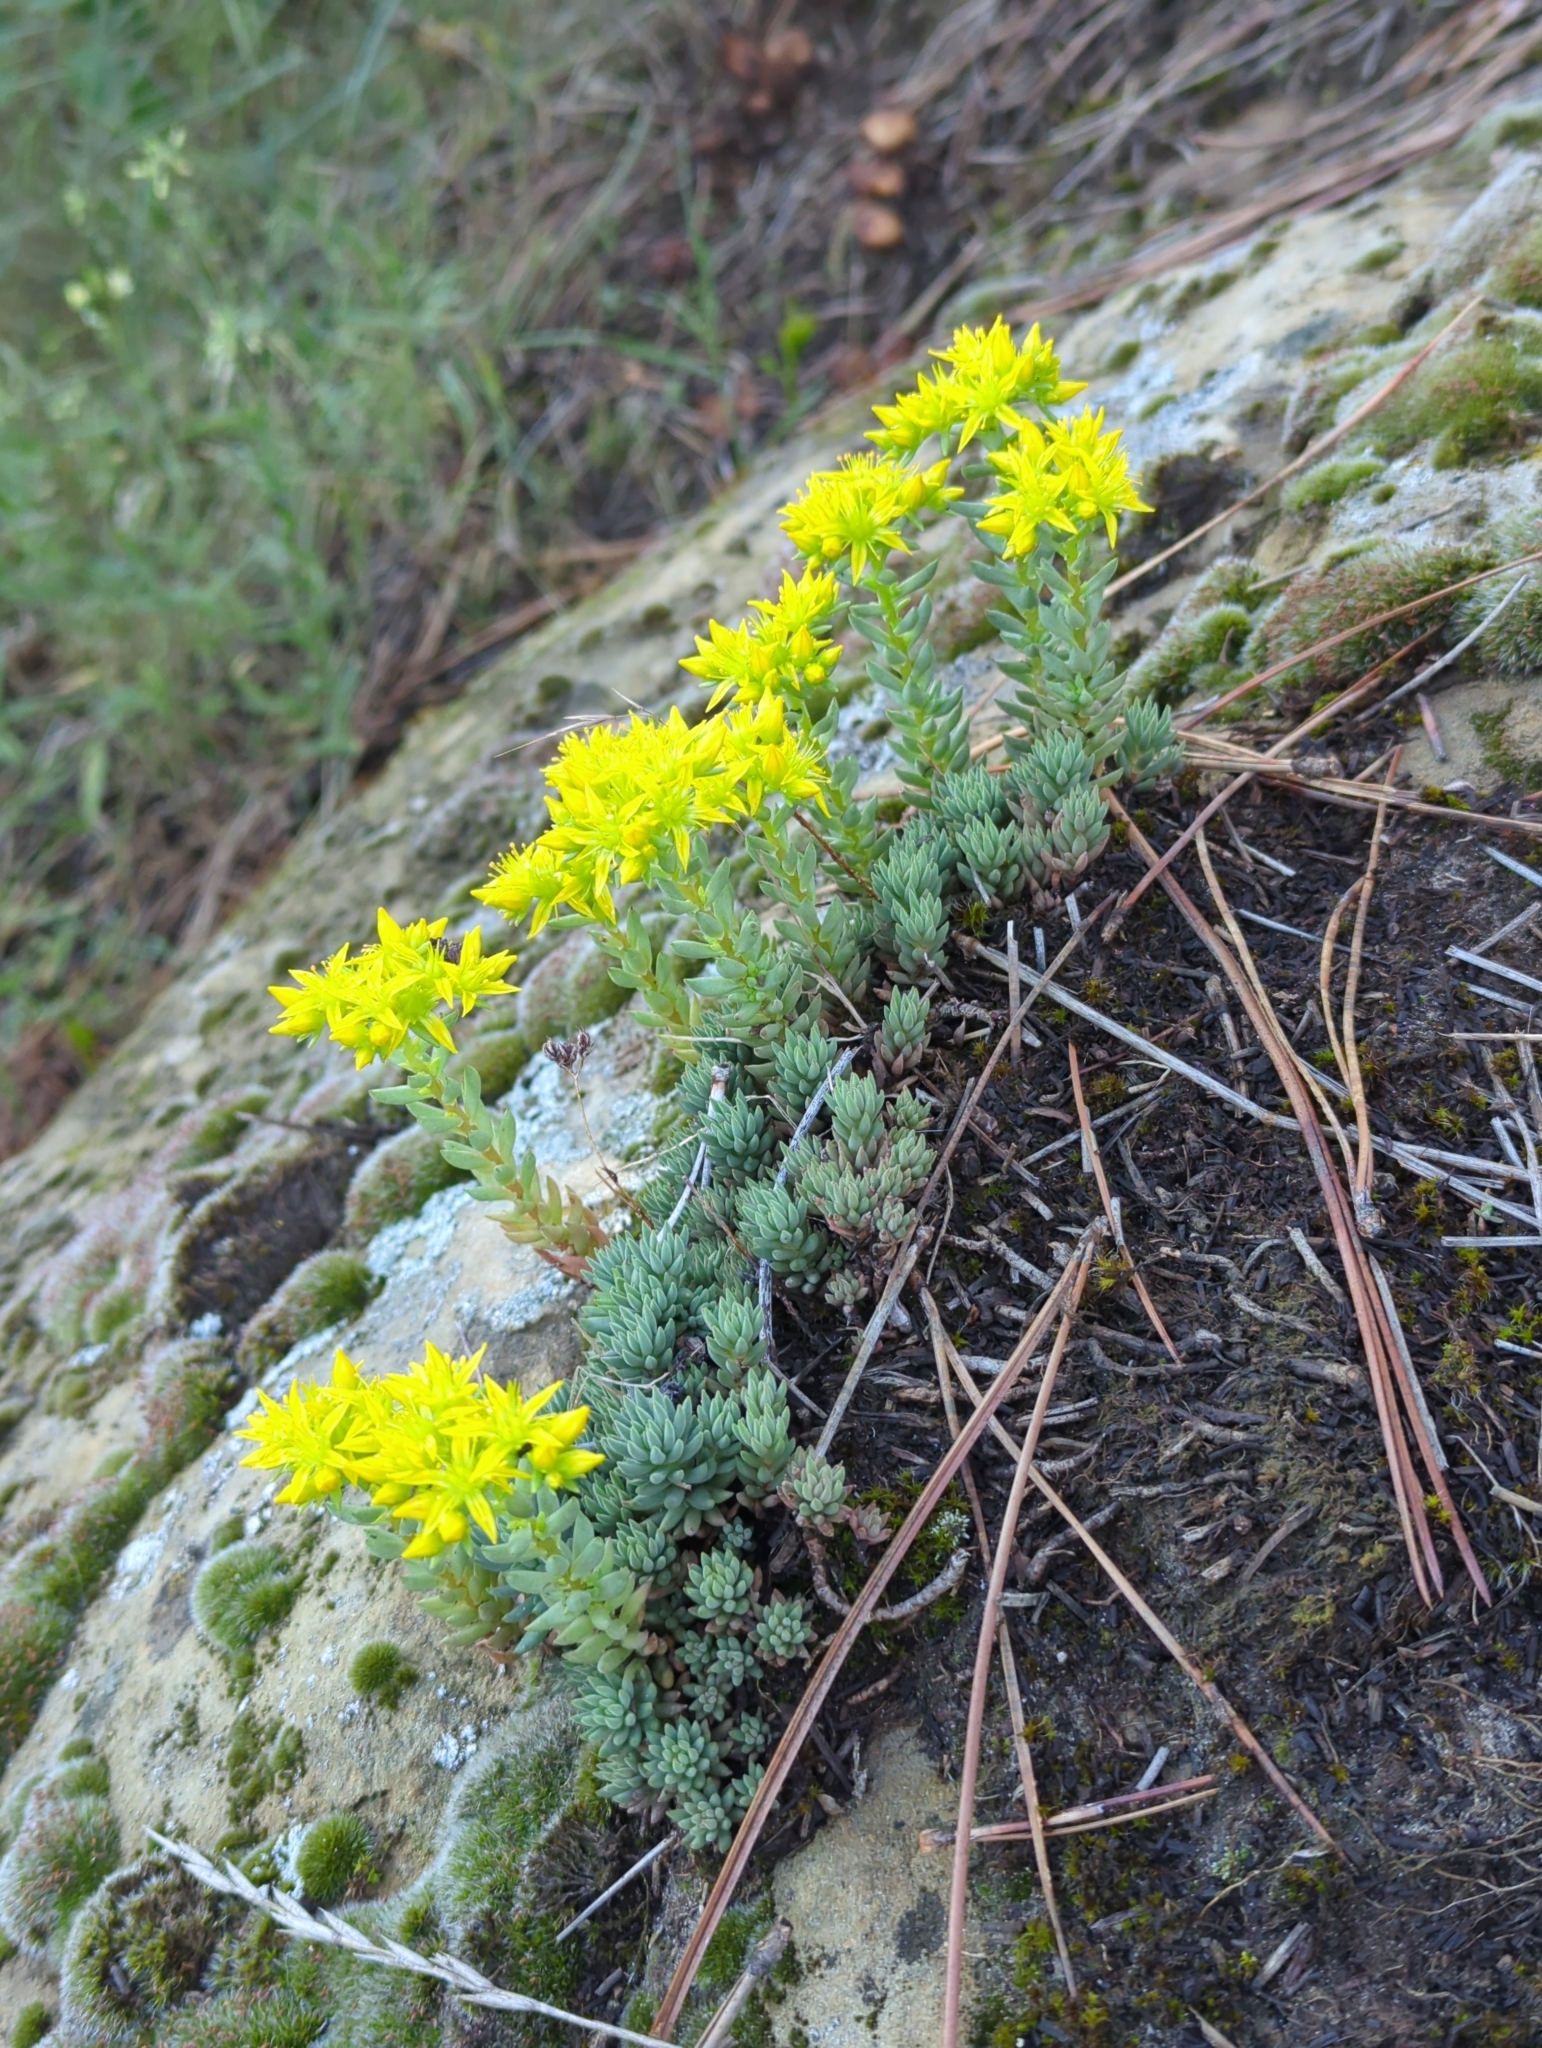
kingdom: Plantae
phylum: Tracheophyta
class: Magnoliopsida
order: Saxifragales
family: Crassulaceae
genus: Sedum
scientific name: Sedum lanceolatum
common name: Common stonecrop
